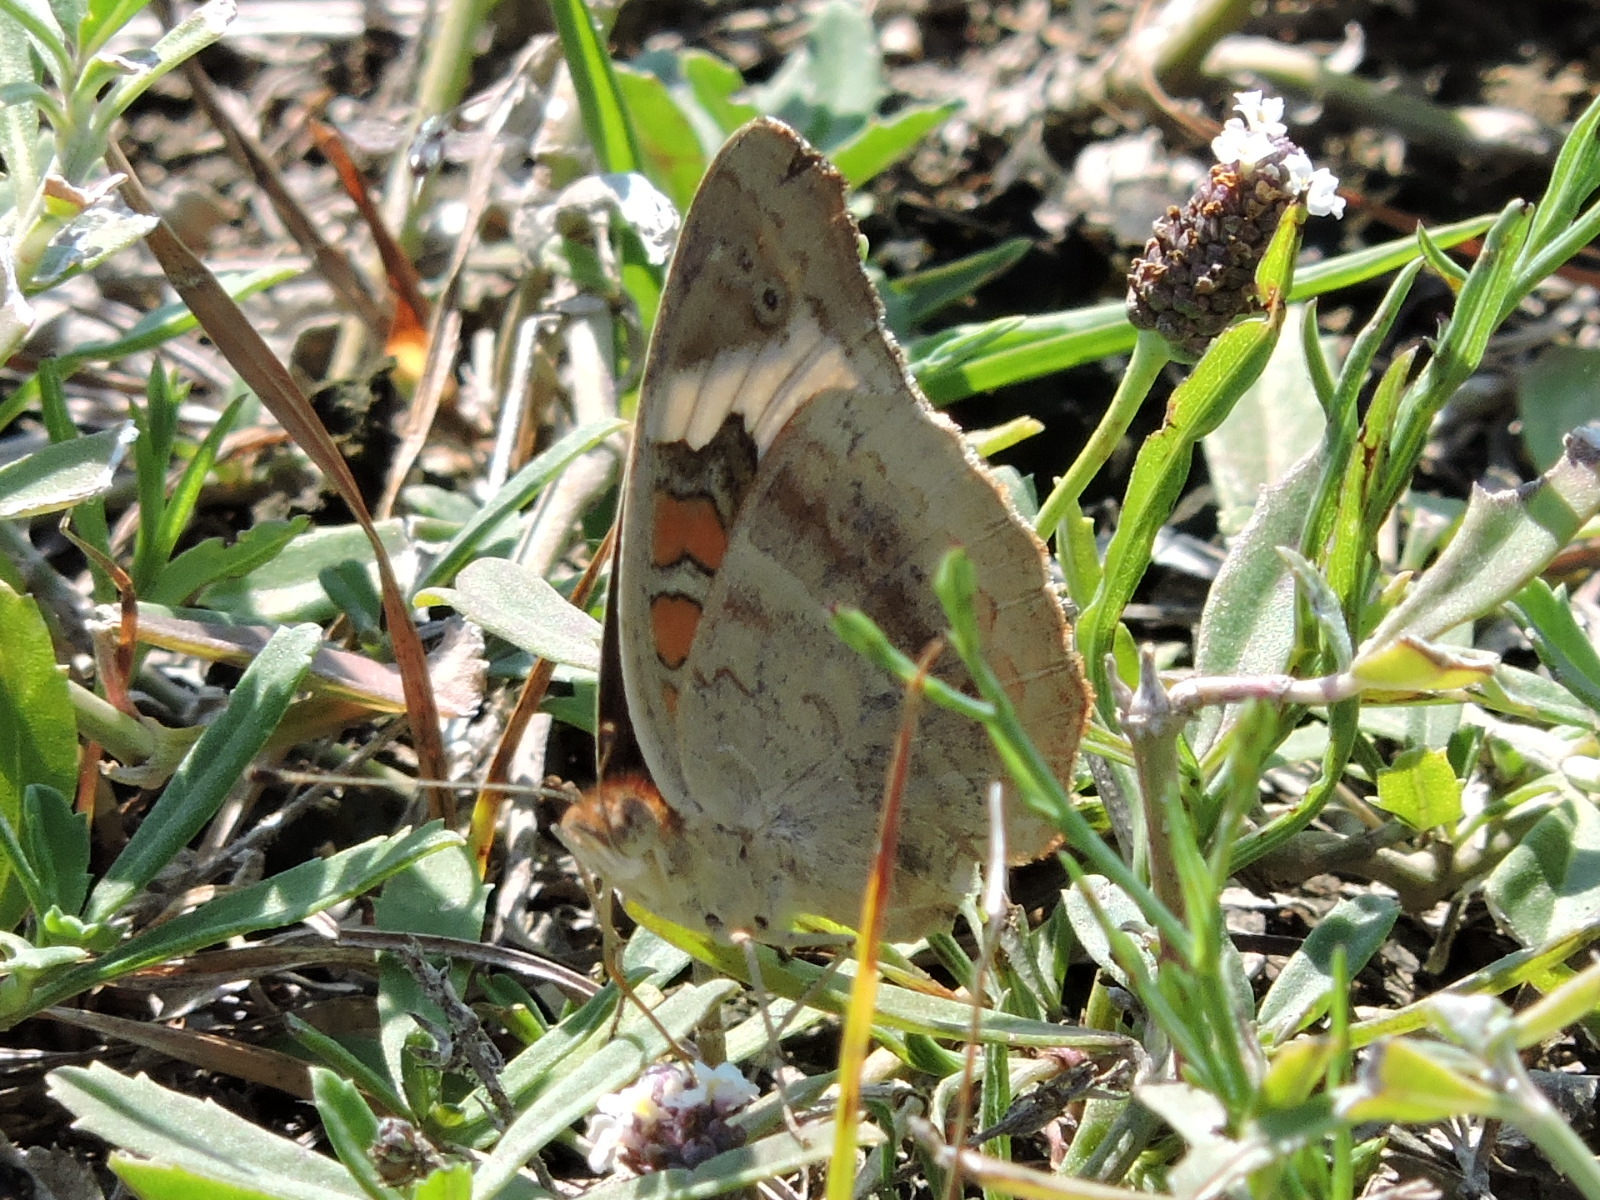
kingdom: Animalia
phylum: Arthropoda
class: Insecta
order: Lepidoptera
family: Nymphalidae
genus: Junonia
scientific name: Junonia coenia
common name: Common buckeye
